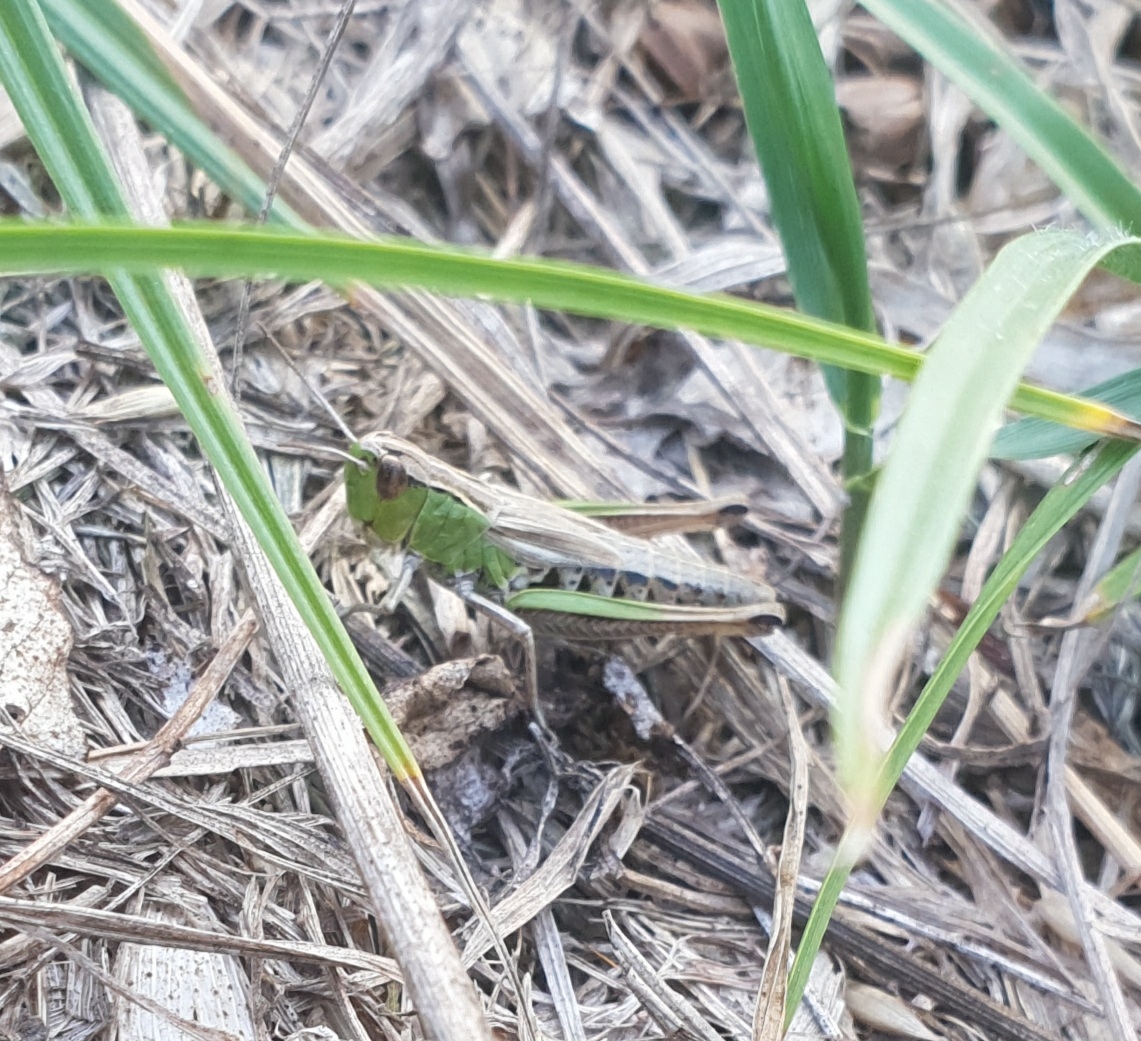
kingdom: Animalia
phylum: Arthropoda
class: Insecta
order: Orthoptera
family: Acrididae
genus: Pseudochorthippus
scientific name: Pseudochorthippus parallelus
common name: Meadow grasshopper
